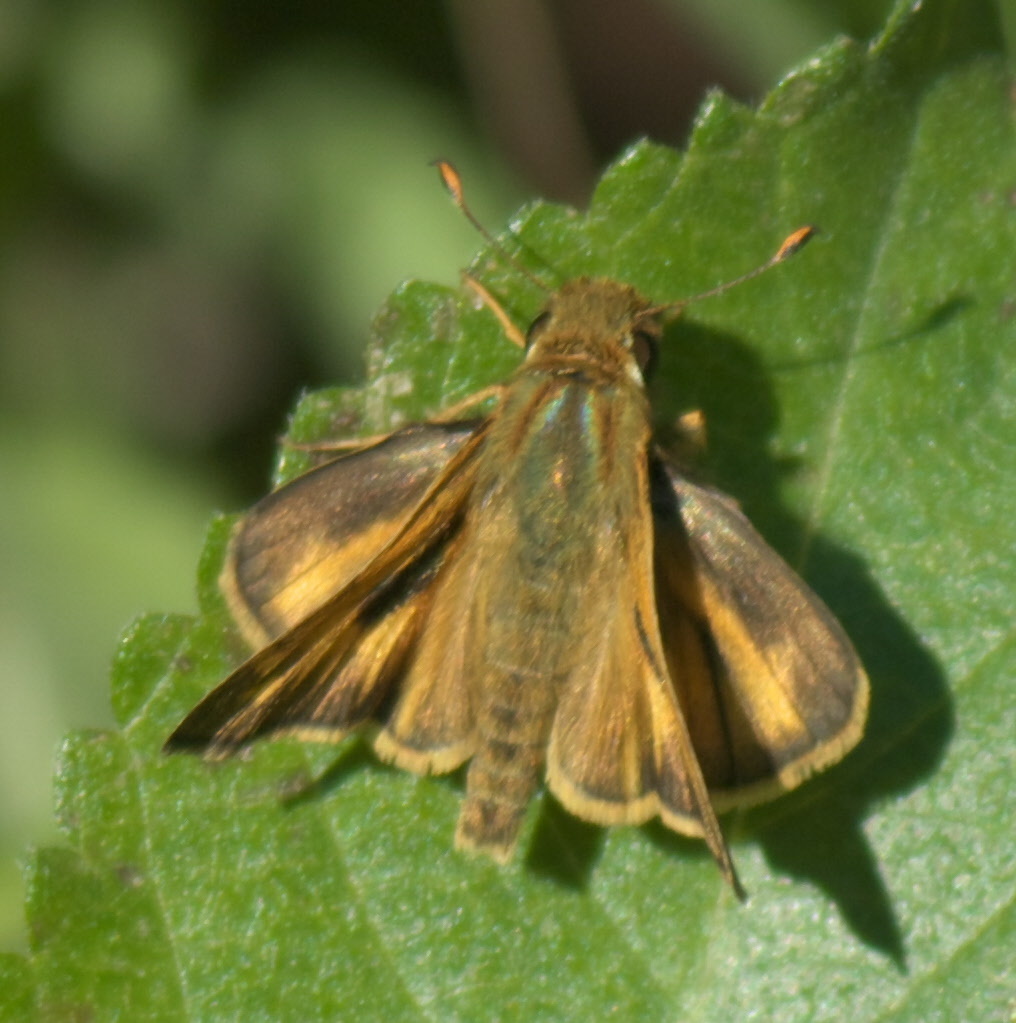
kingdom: Animalia
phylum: Arthropoda
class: Insecta
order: Lepidoptera
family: Hesperiidae
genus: Atalopedes
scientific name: Atalopedes
